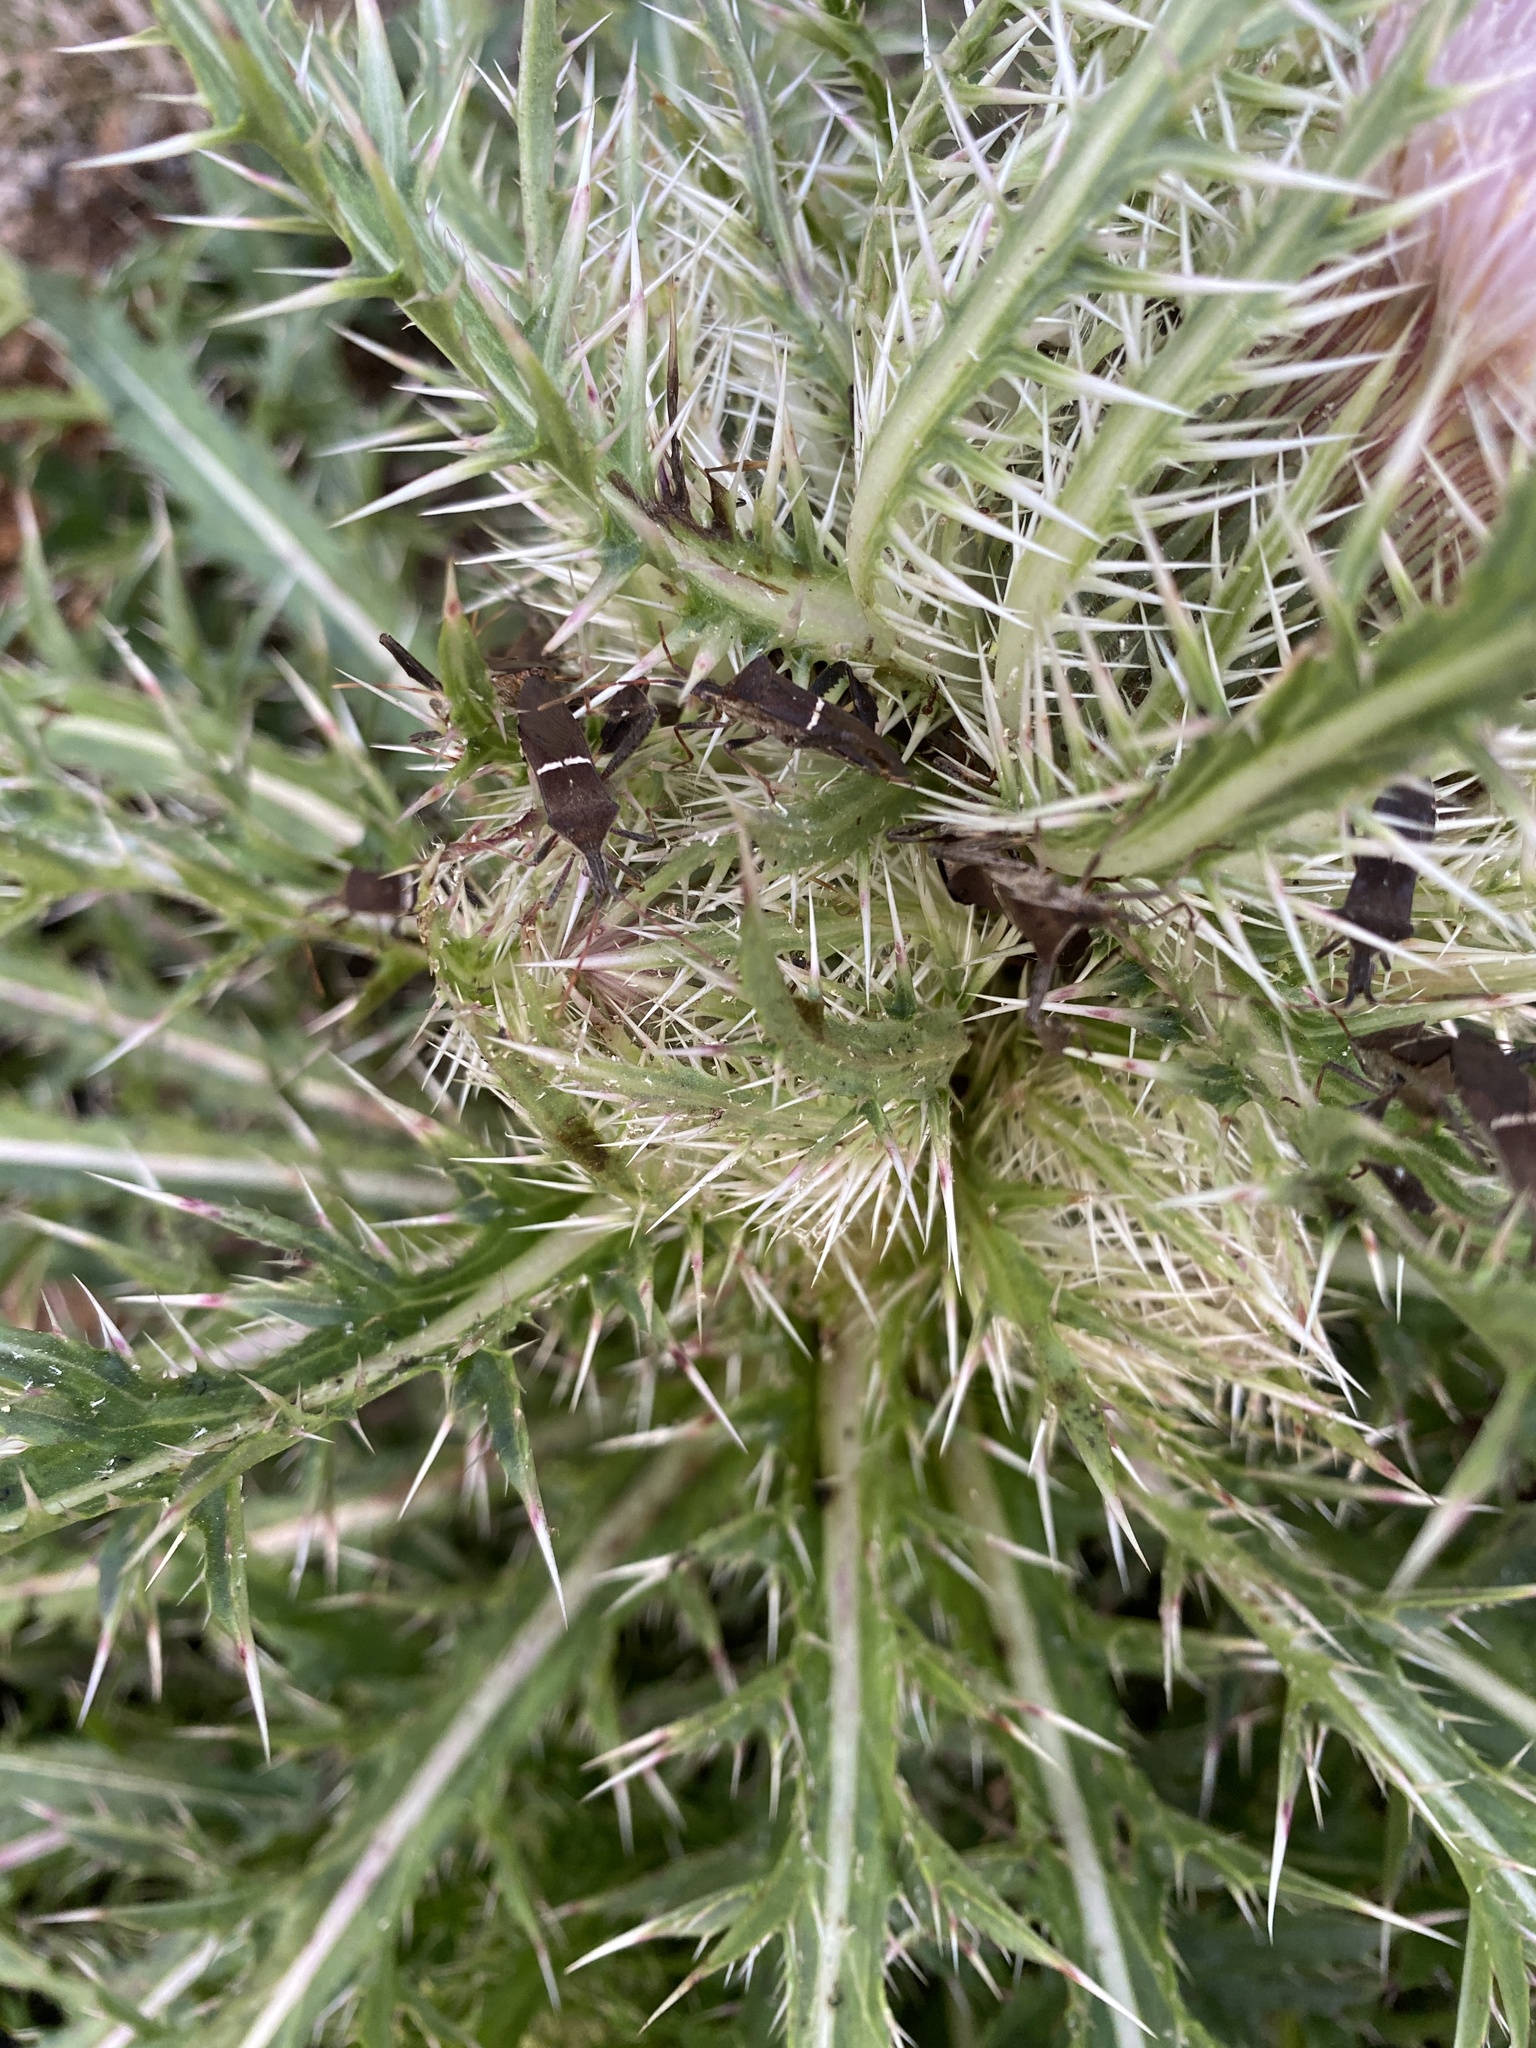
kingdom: Animalia
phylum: Arthropoda
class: Insecta
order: Hemiptera
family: Coreidae
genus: Leptoglossus
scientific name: Leptoglossus phyllopus
